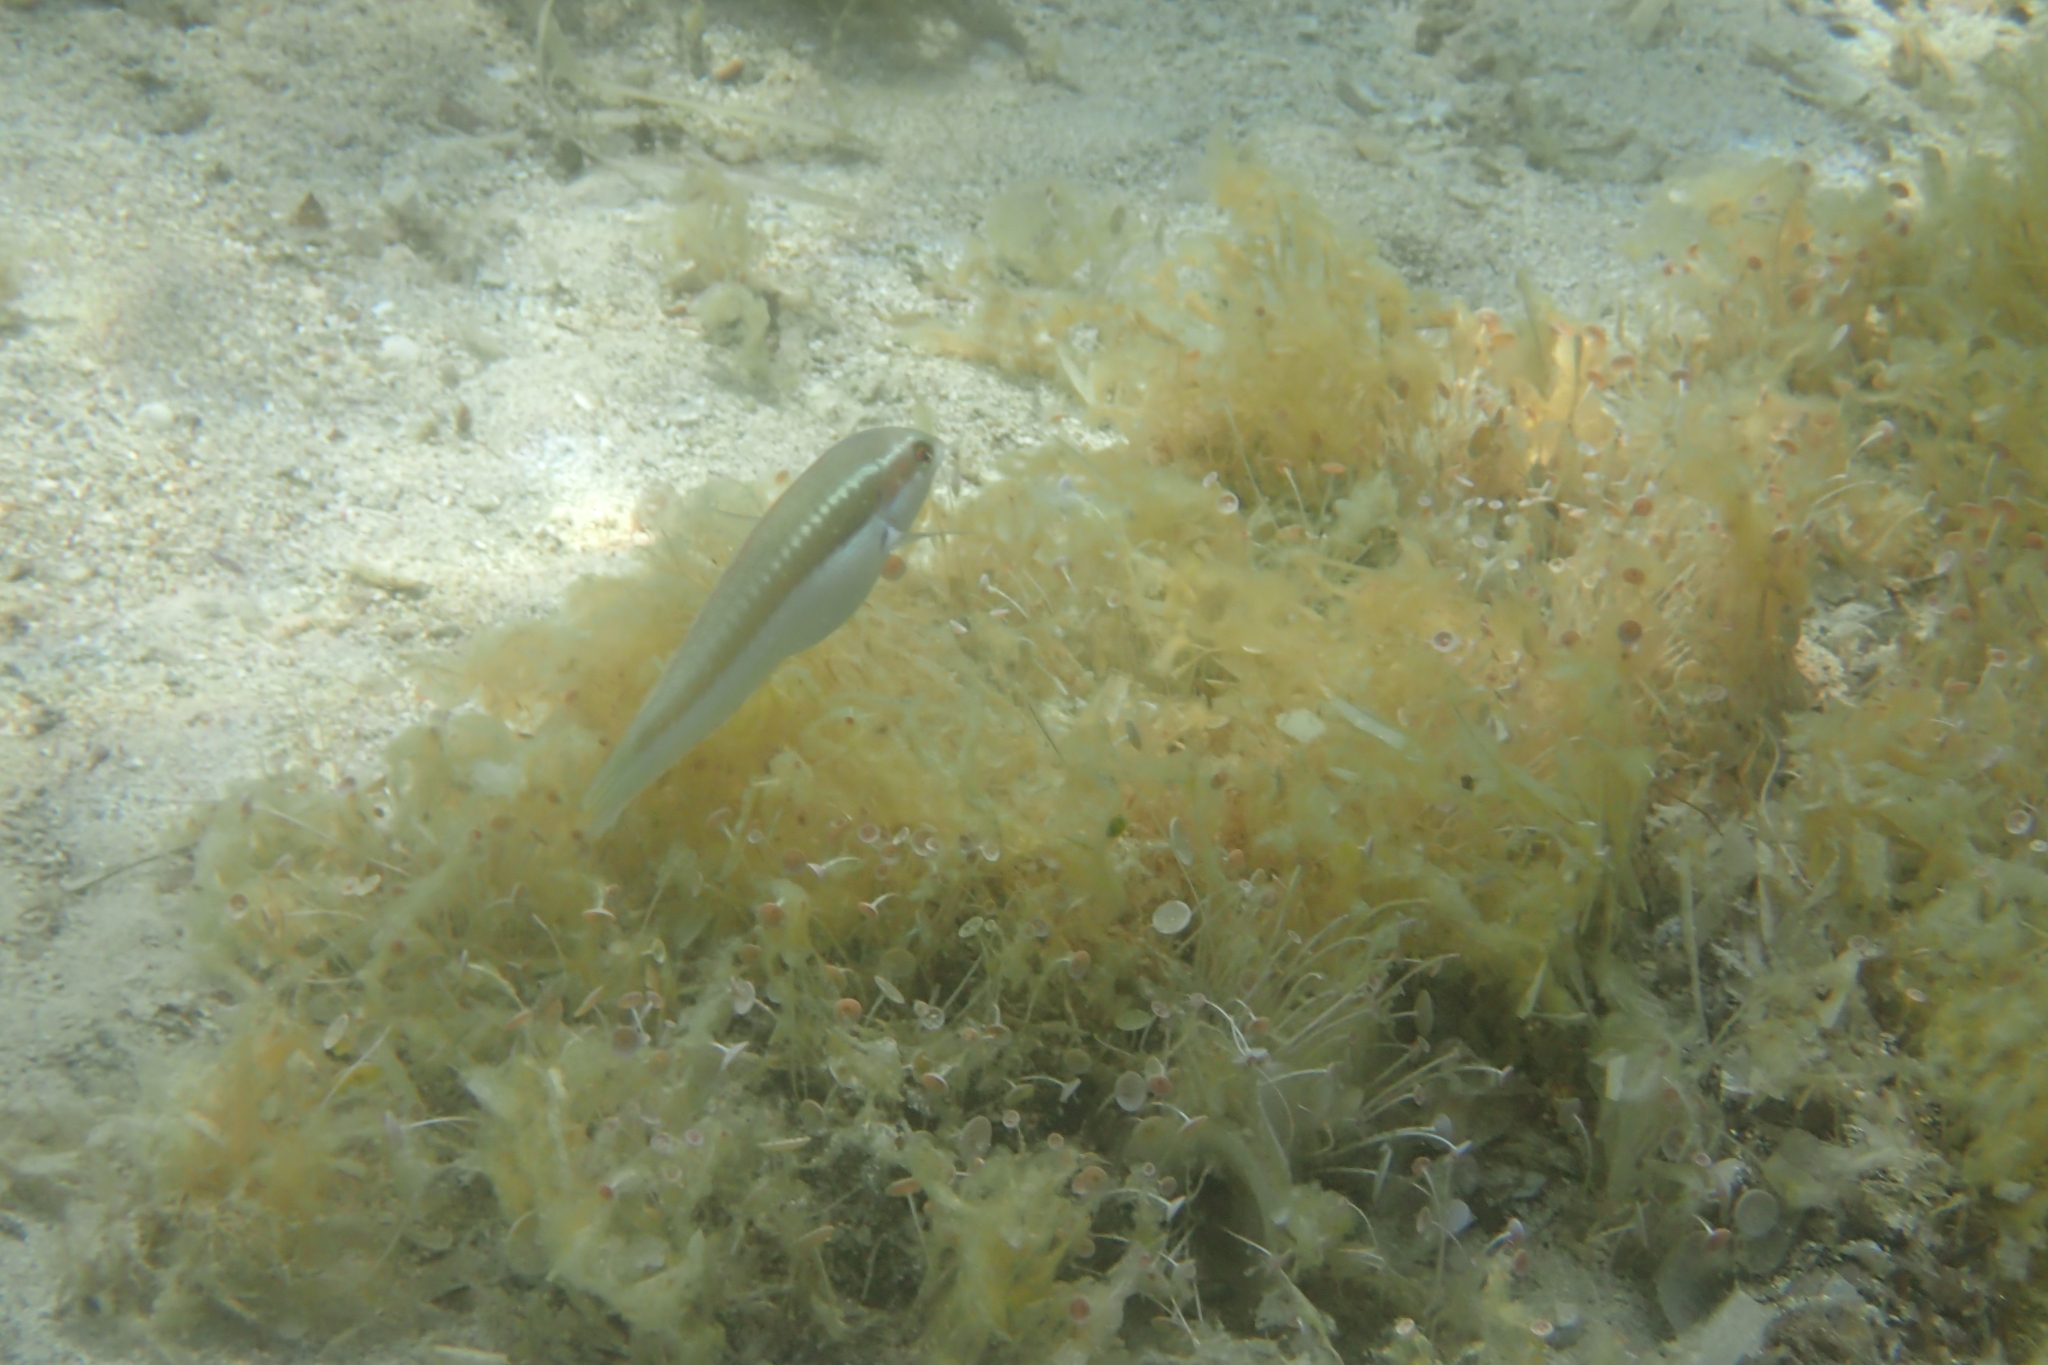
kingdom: Animalia
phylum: Chordata
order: Perciformes
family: Labridae
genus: Coris
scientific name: Coris julis
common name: Rainbow wrasse
